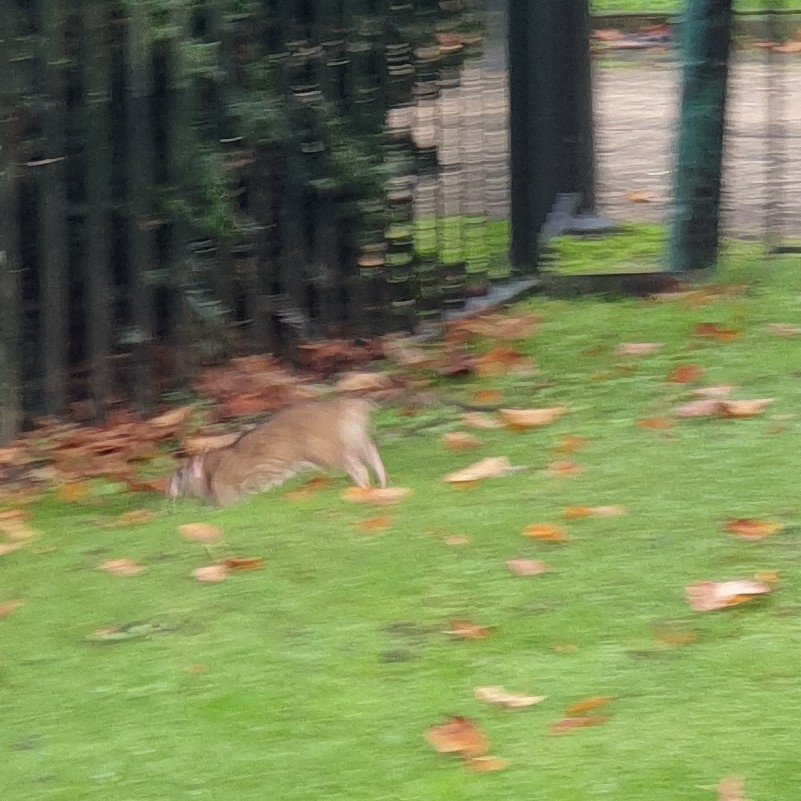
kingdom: Animalia
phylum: Chordata
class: Mammalia
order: Rodentia
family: Muridae
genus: Rattus
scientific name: Rattus norvegicus
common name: Brown rat
